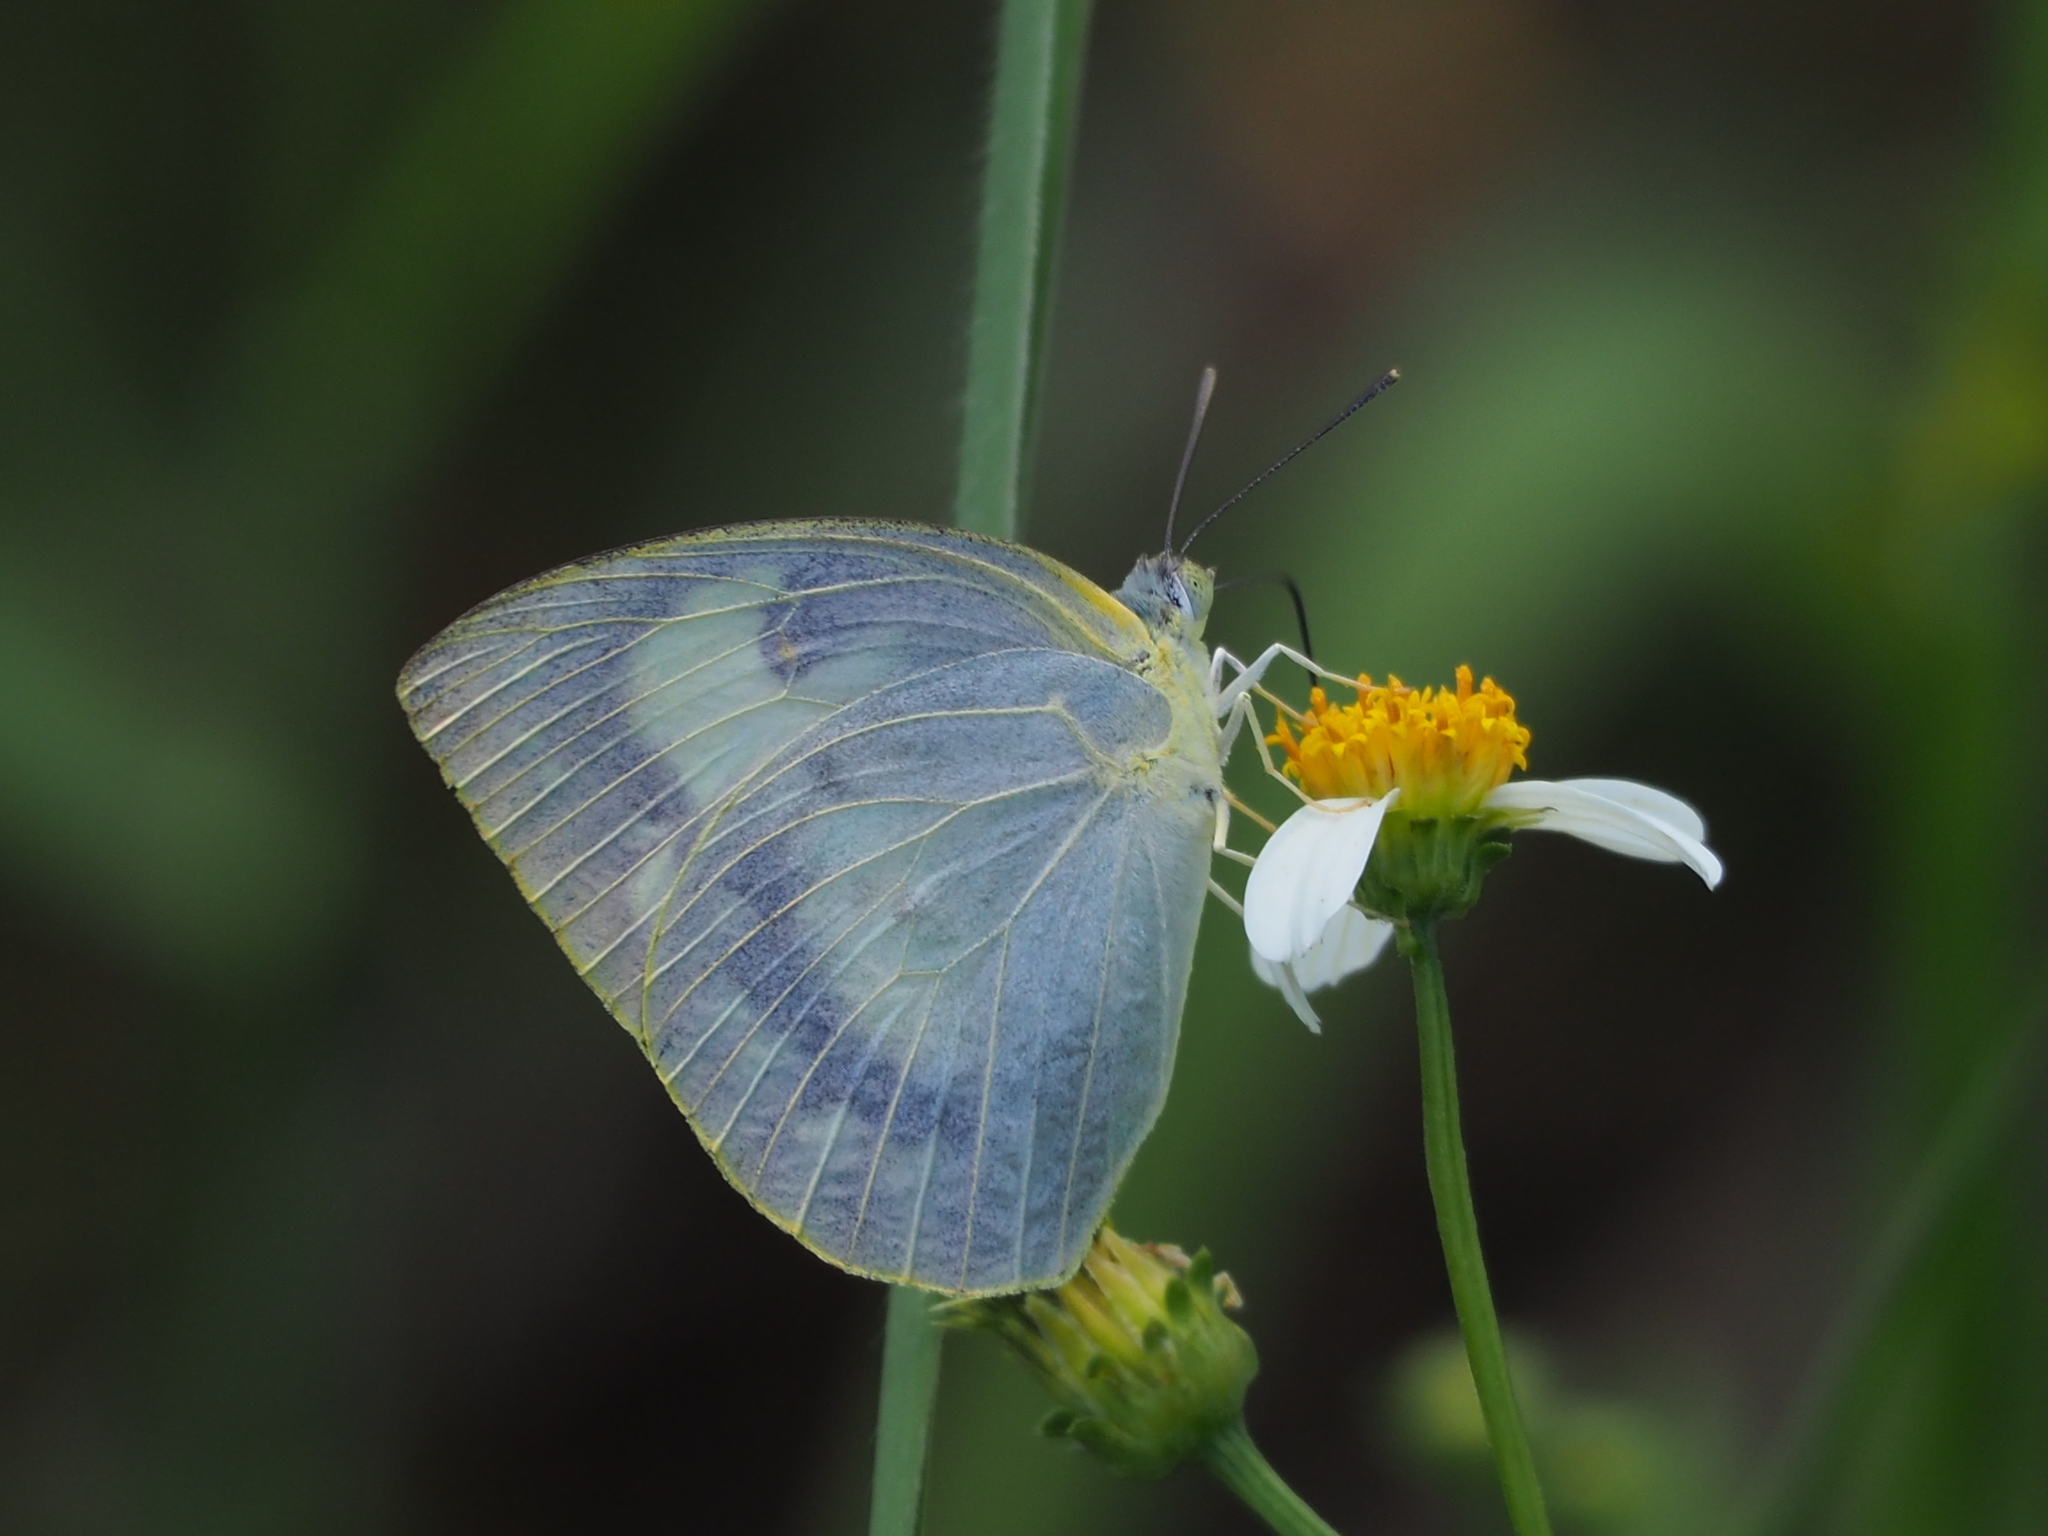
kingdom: Animalia
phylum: Arthropoda
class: Insecta
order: Lepidoptera
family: Pieridae
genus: Catopsilia
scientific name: Catopsilia pomona
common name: Common emigrant
